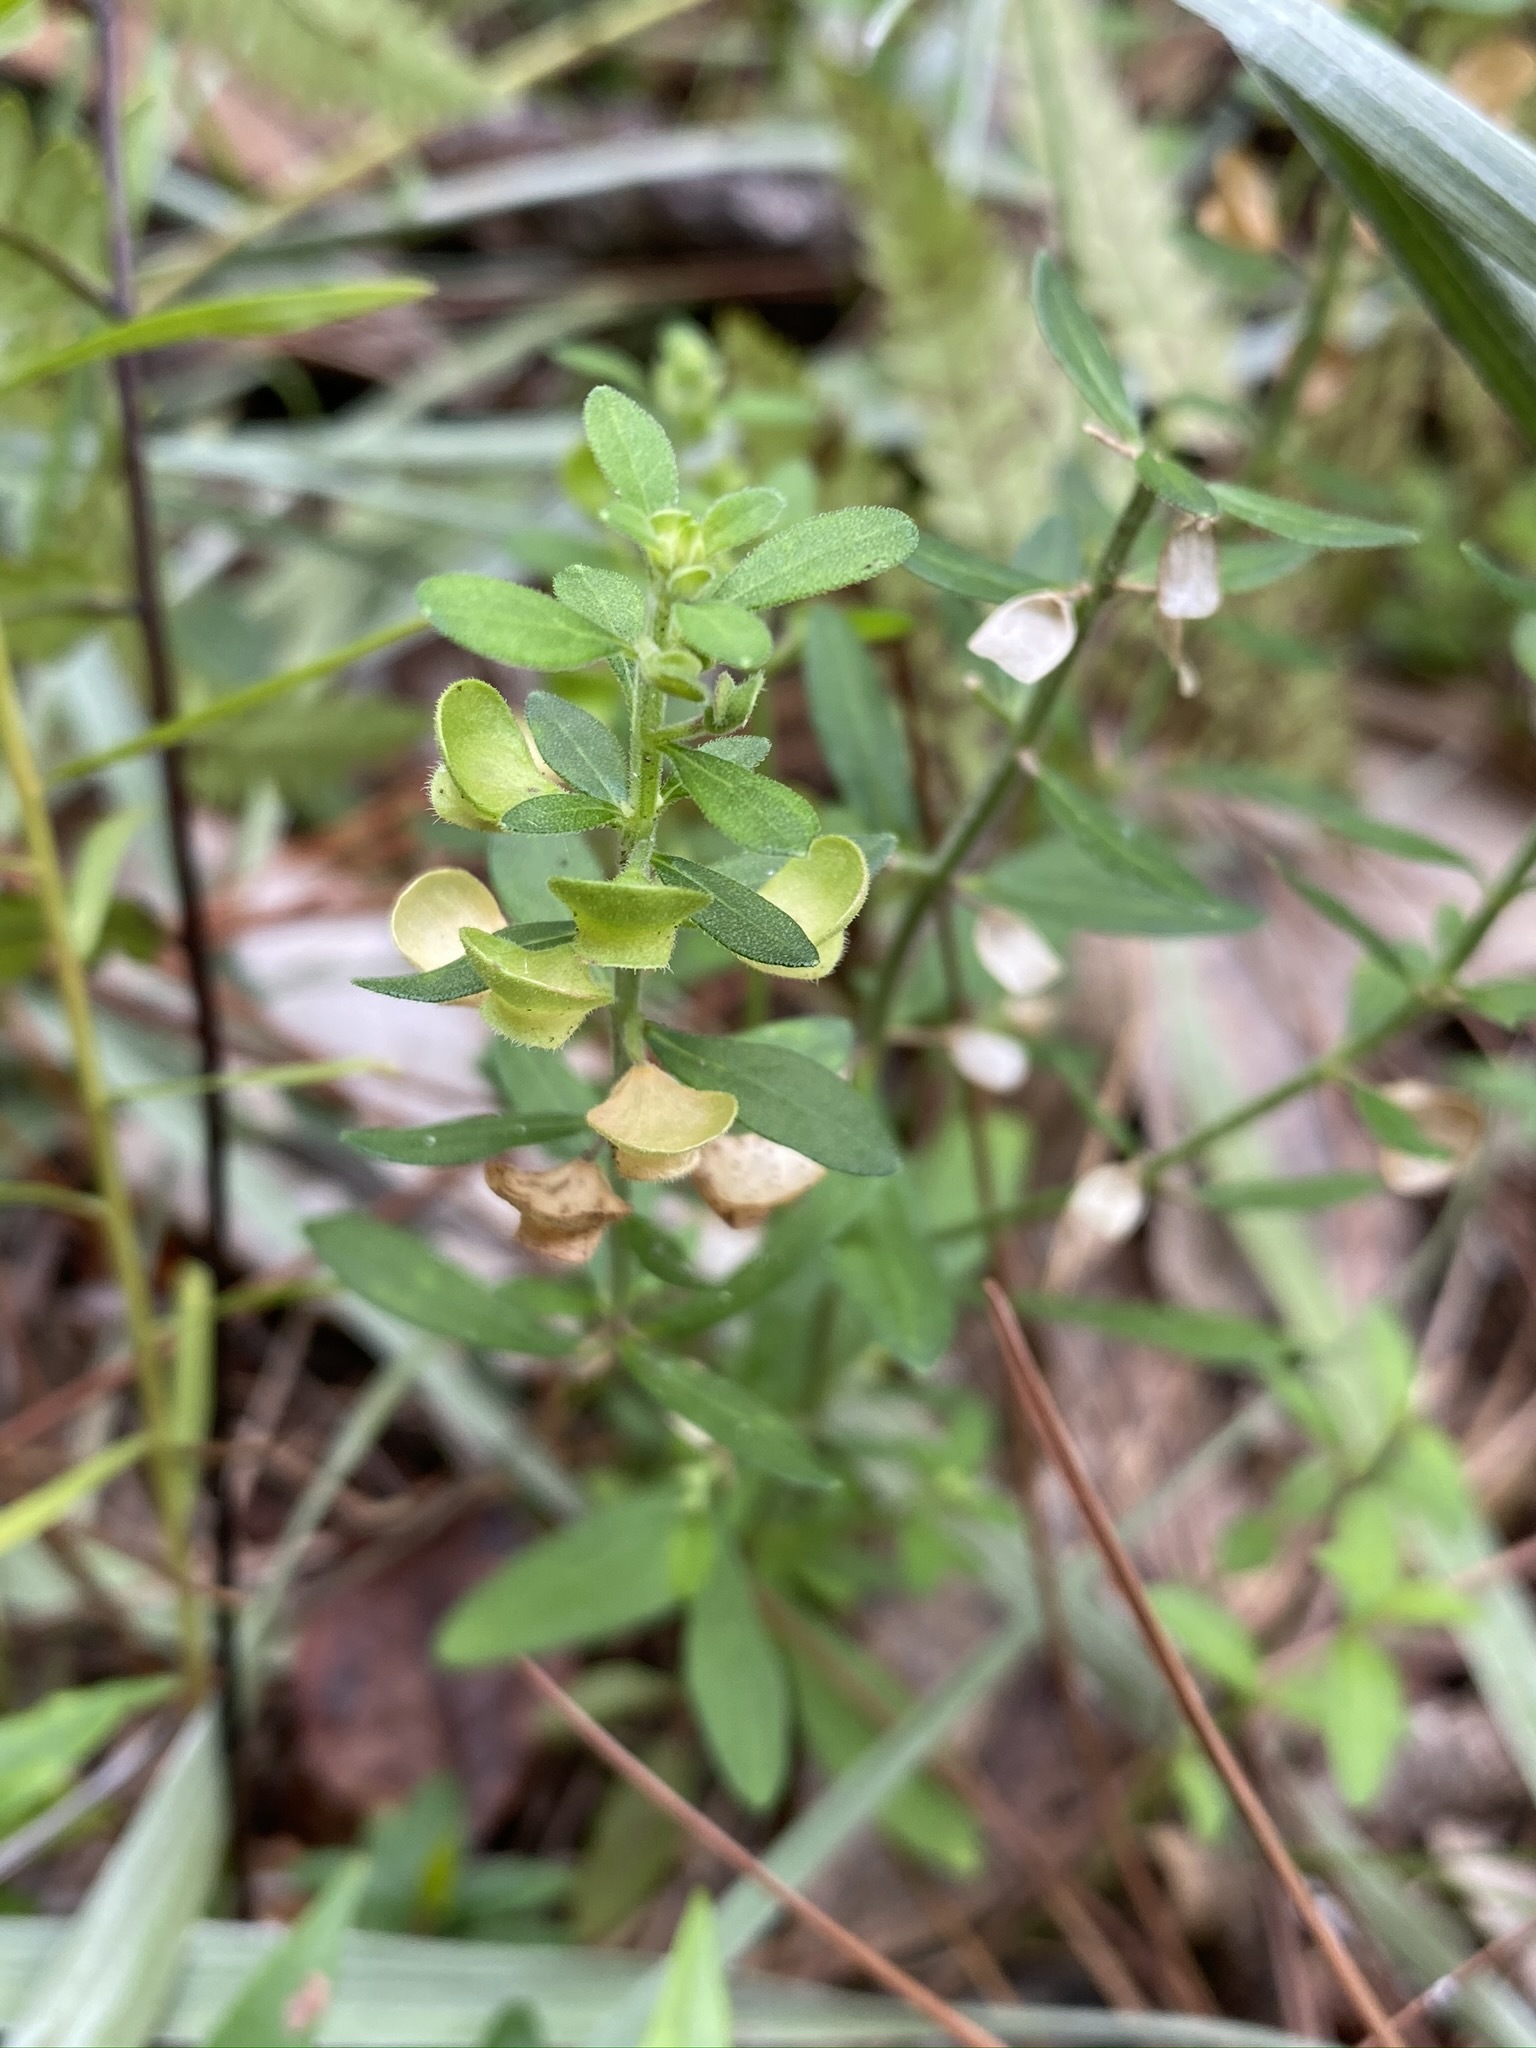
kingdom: Plantae
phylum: Tracheophyta
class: Magnoliopsida
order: Lamiales
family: Lamiaceae
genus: Scutellaria
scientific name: Scutellaria integrifolia
